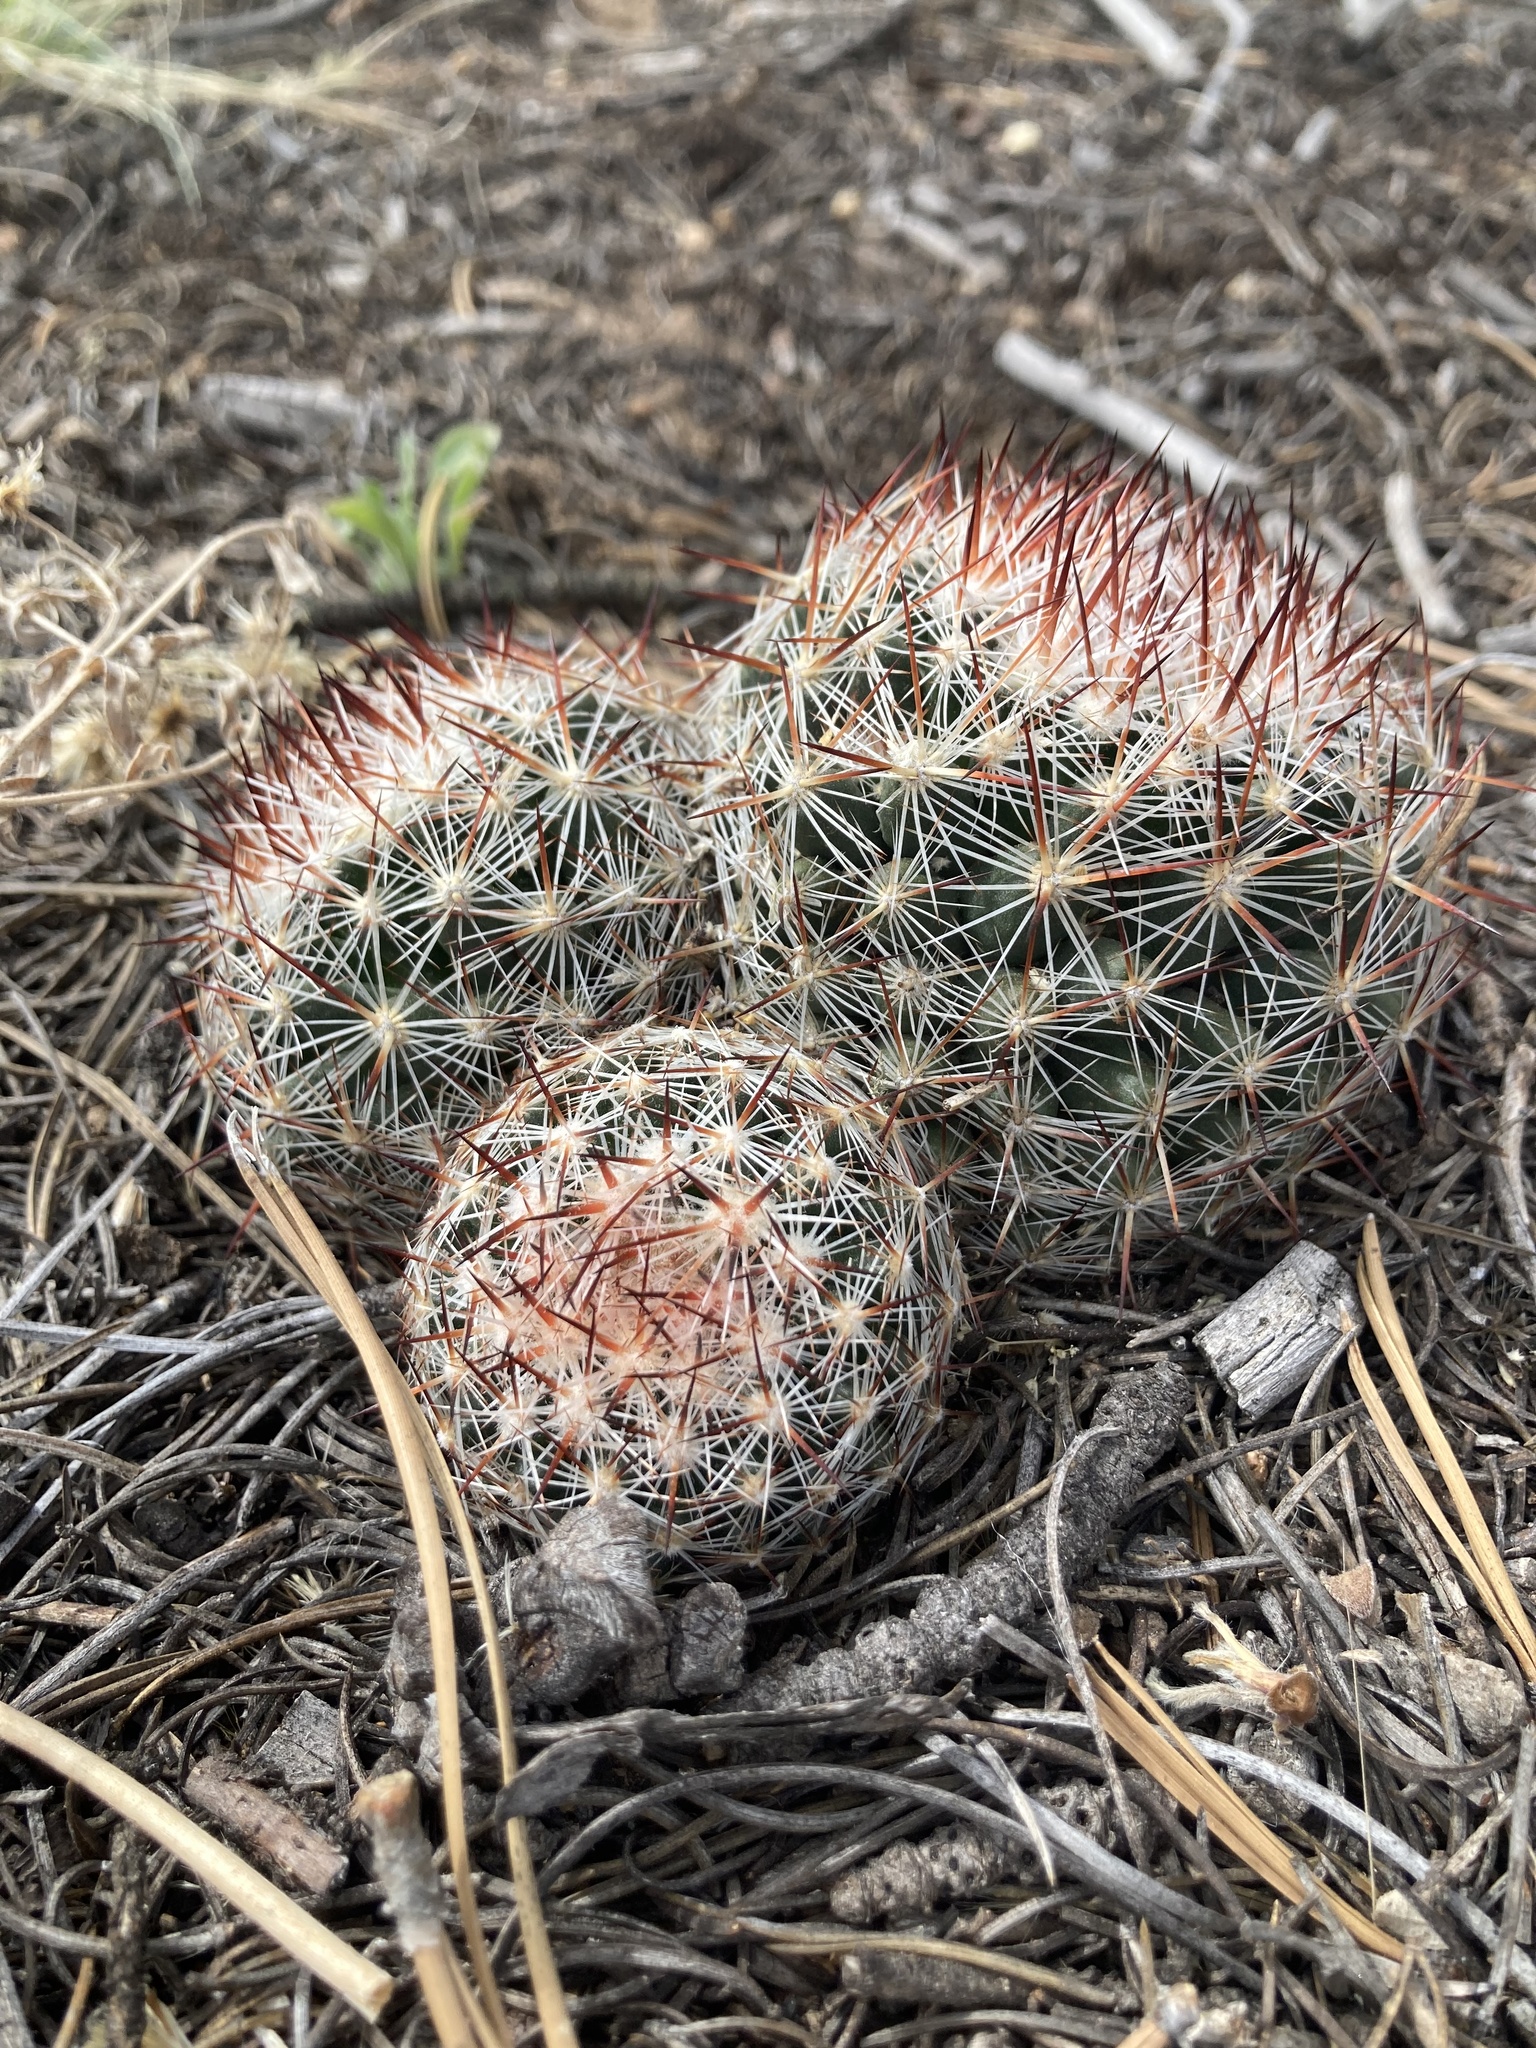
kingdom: Plantae
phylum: Tracheophyta
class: Magnoliopsida
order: Caryophyllales
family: Cactaceae
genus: Pelecyphora
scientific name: Pelecyphora vivipara
